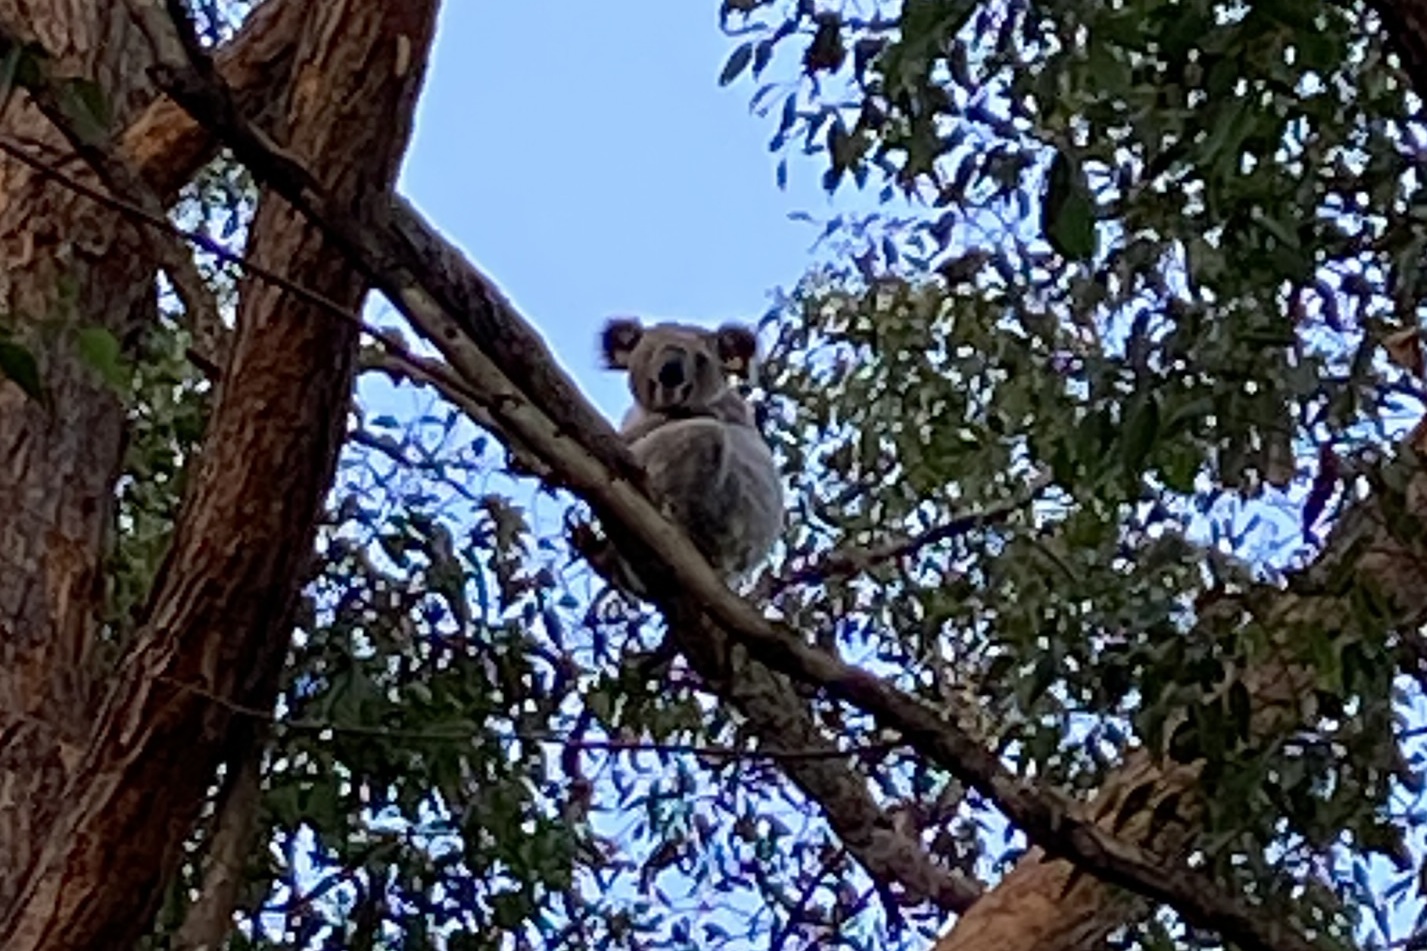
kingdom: Animalia
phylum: Chordata
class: Mammalia
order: Diprotodontia
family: Phascolarctidae
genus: Phascolarctos
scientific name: Phascolarctos cinereus
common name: Koala
